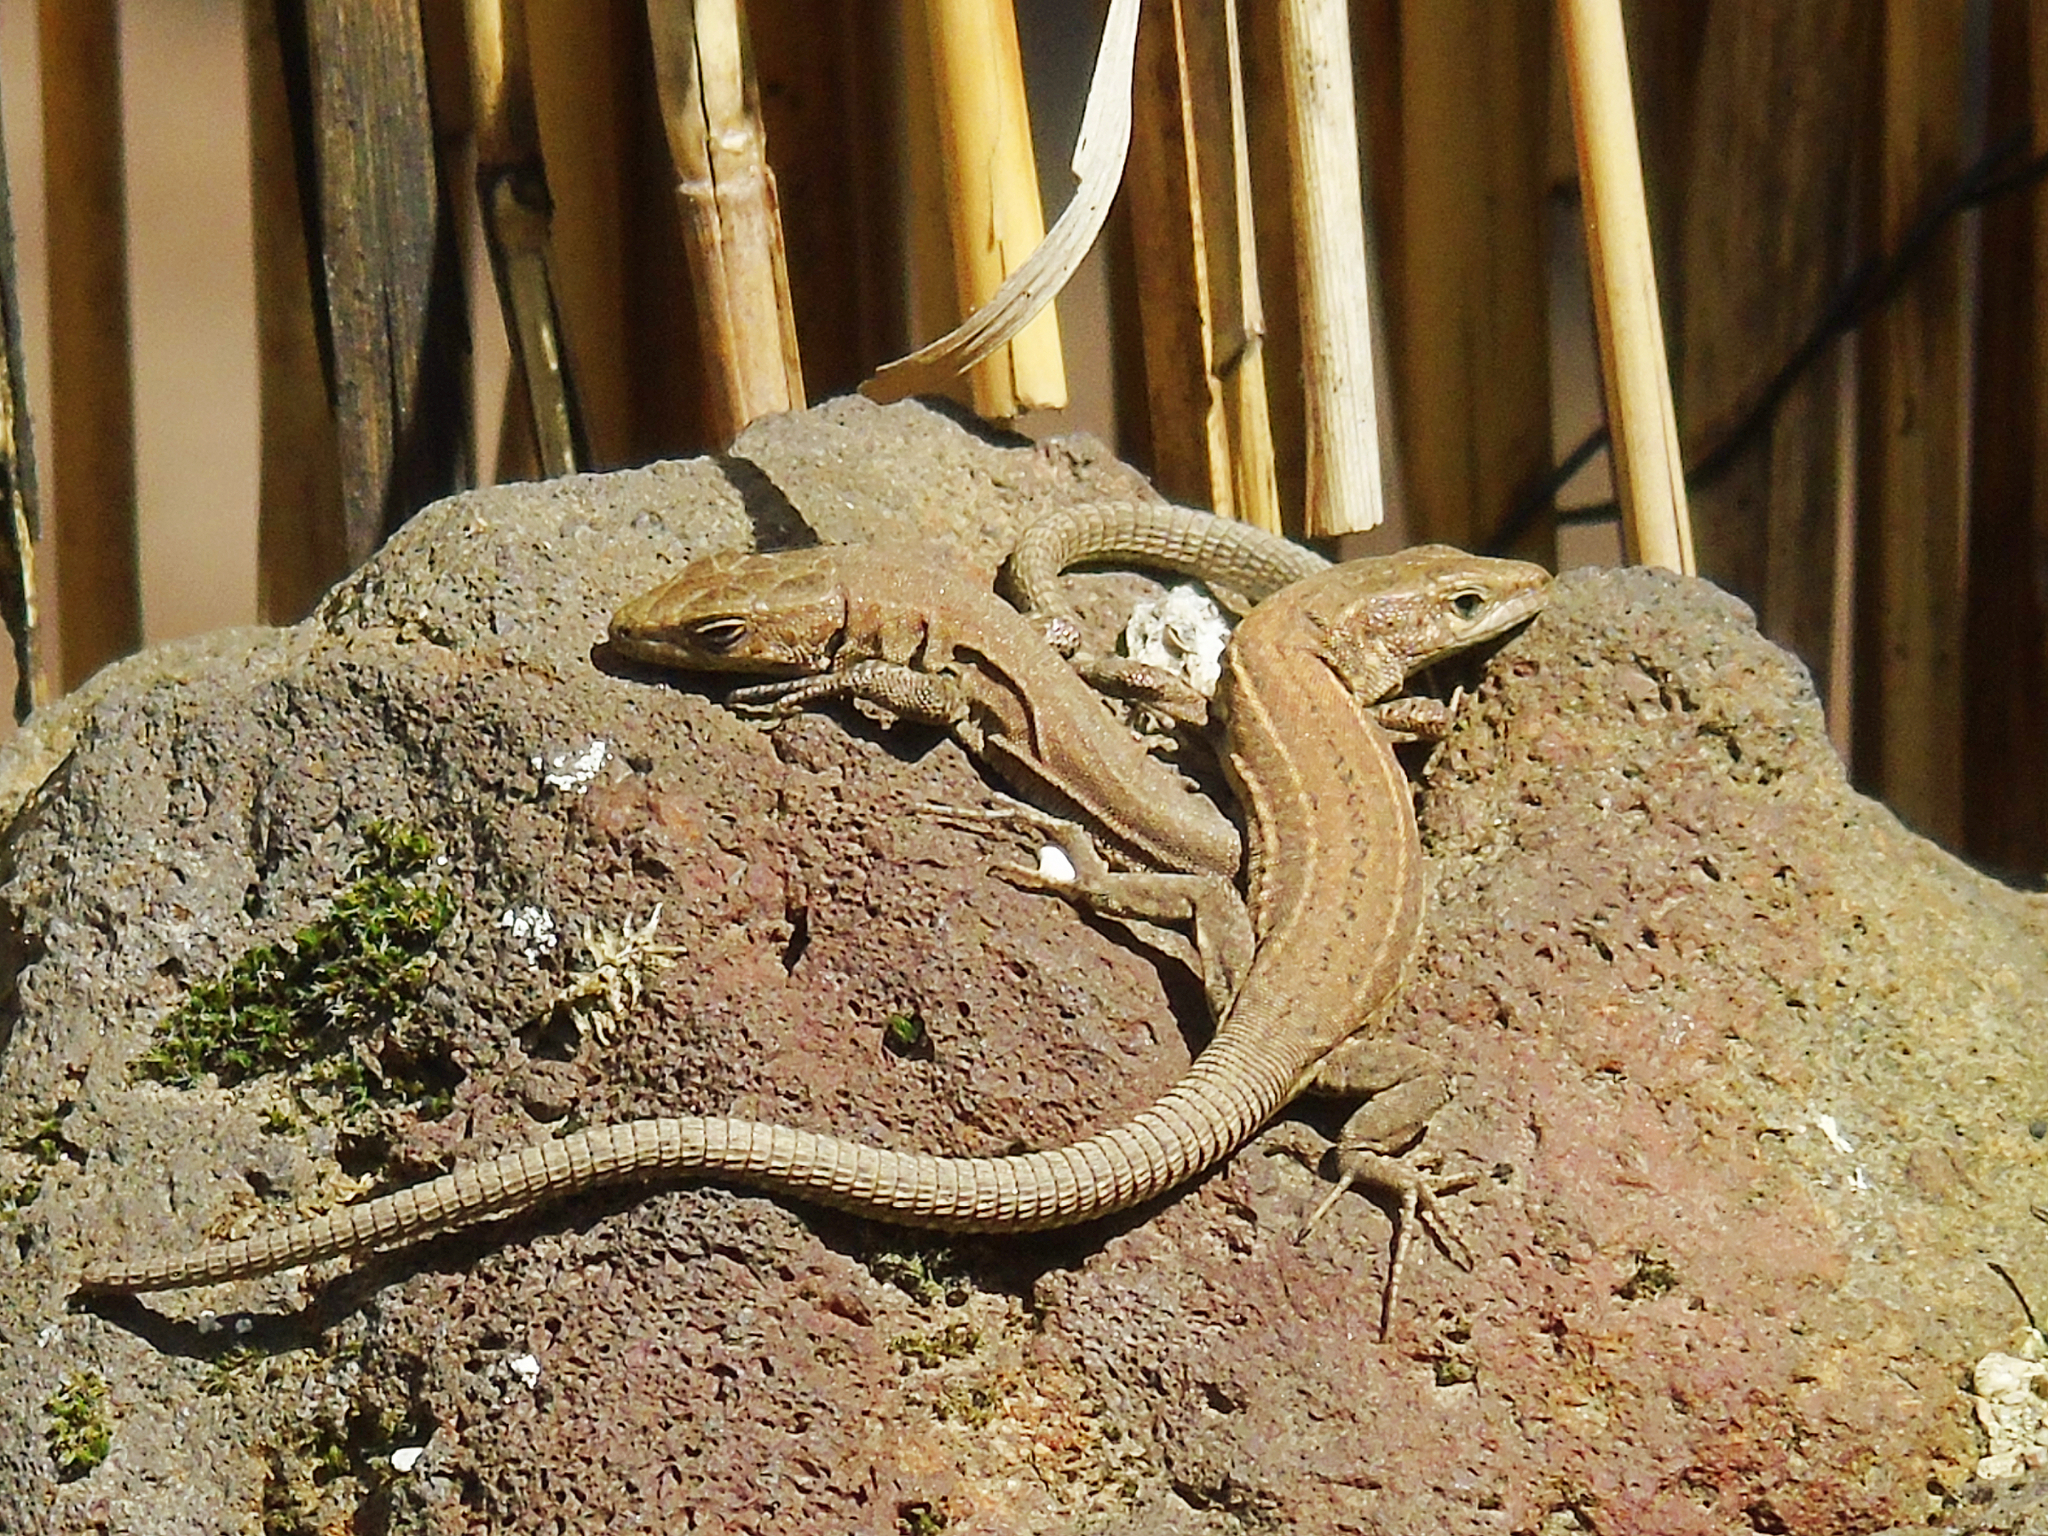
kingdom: Animalia
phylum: Chordata
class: Squamata
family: Lacertidae
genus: Podarcis
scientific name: Podarcis liolepis
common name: Catalonian wall lizard
